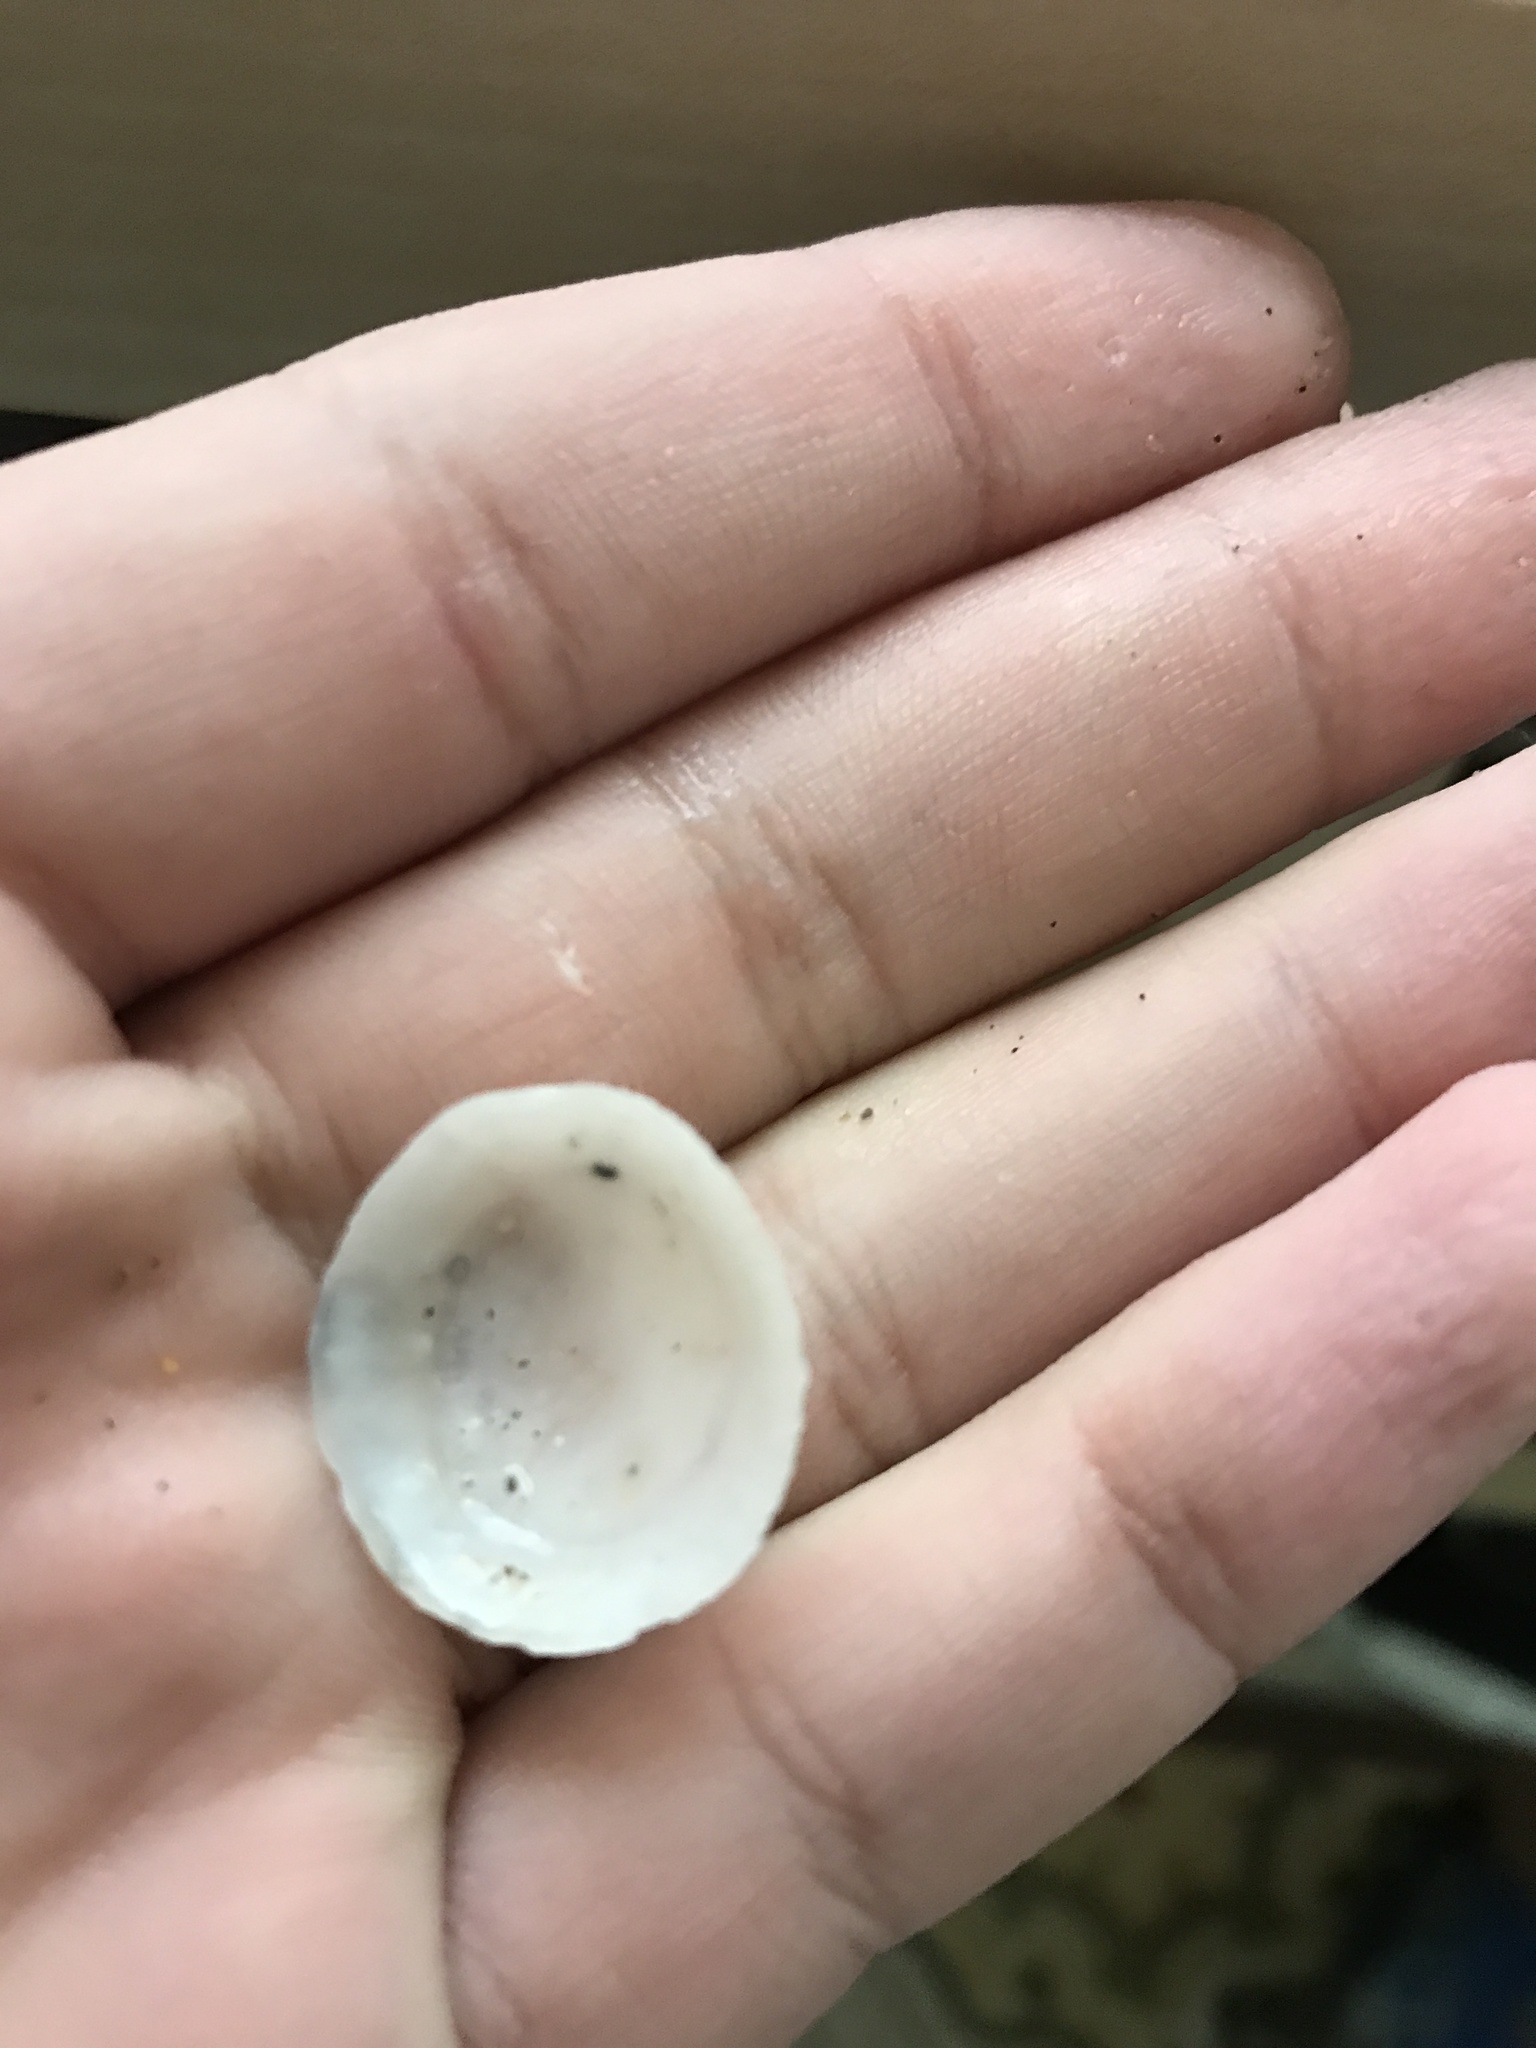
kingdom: Animalia
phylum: Mollusca
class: Gastropoda
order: Ellobiida
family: Trimusculidae
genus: Trimusculus
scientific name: Trimusculus reticulatus
